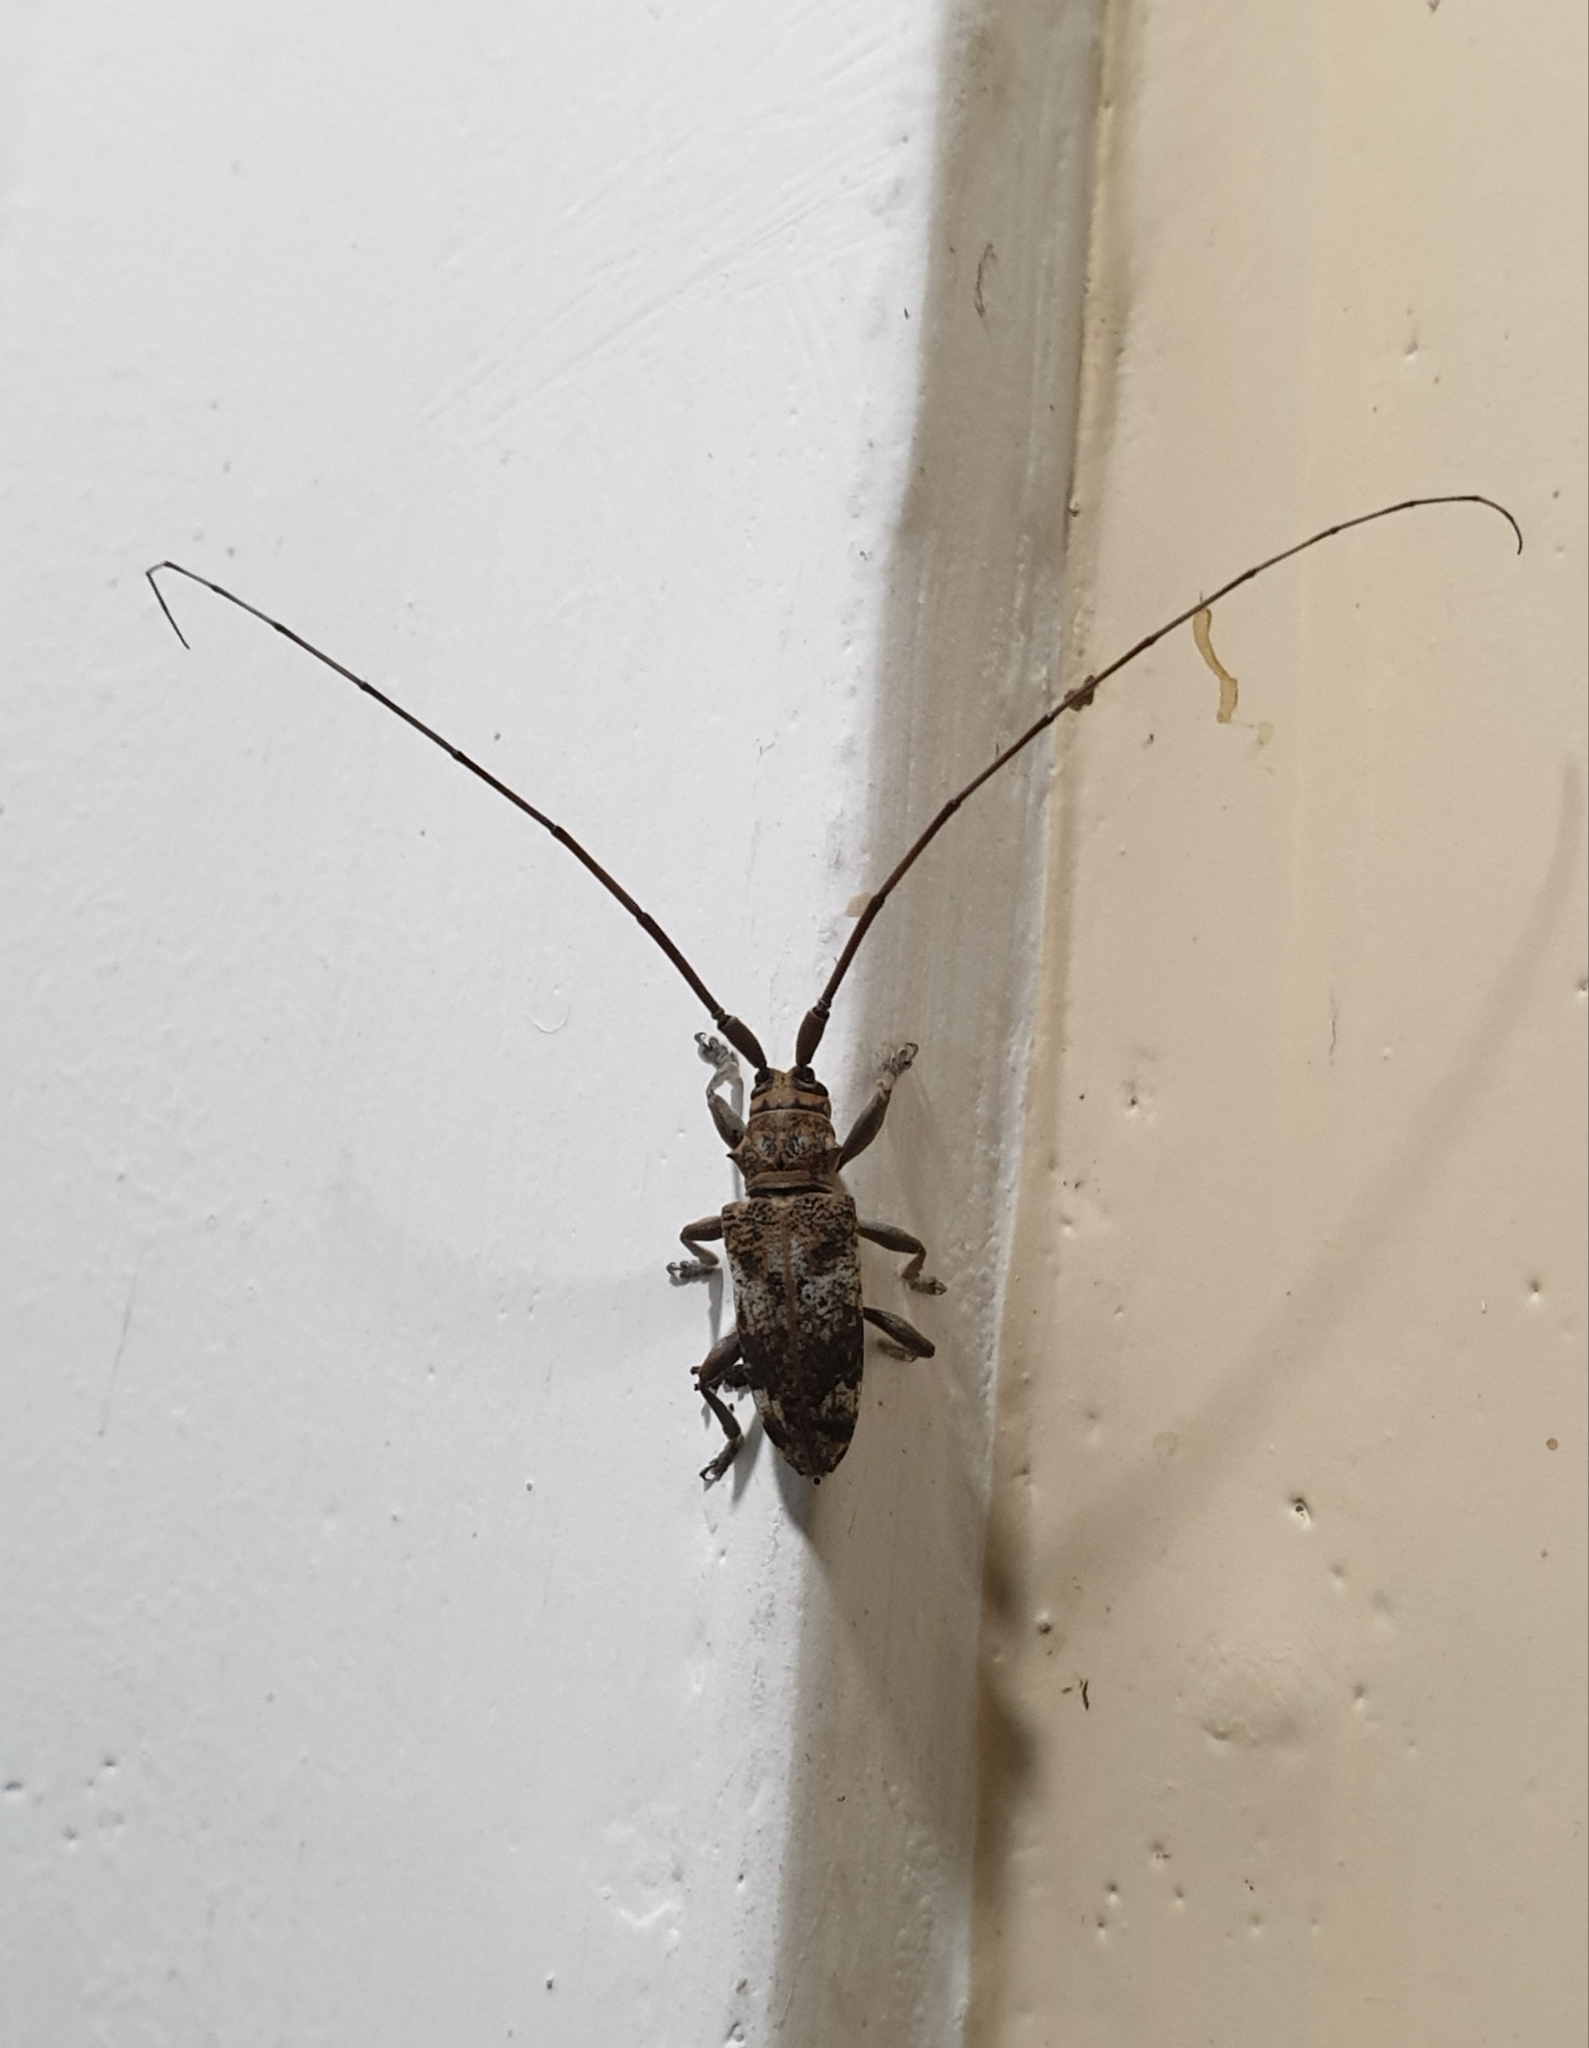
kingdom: Animalia
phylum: Arthropoda
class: Insecta
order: Coleoptera
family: Cerambycidae
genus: Acalolepta
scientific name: Acalolepta rusticatrix
